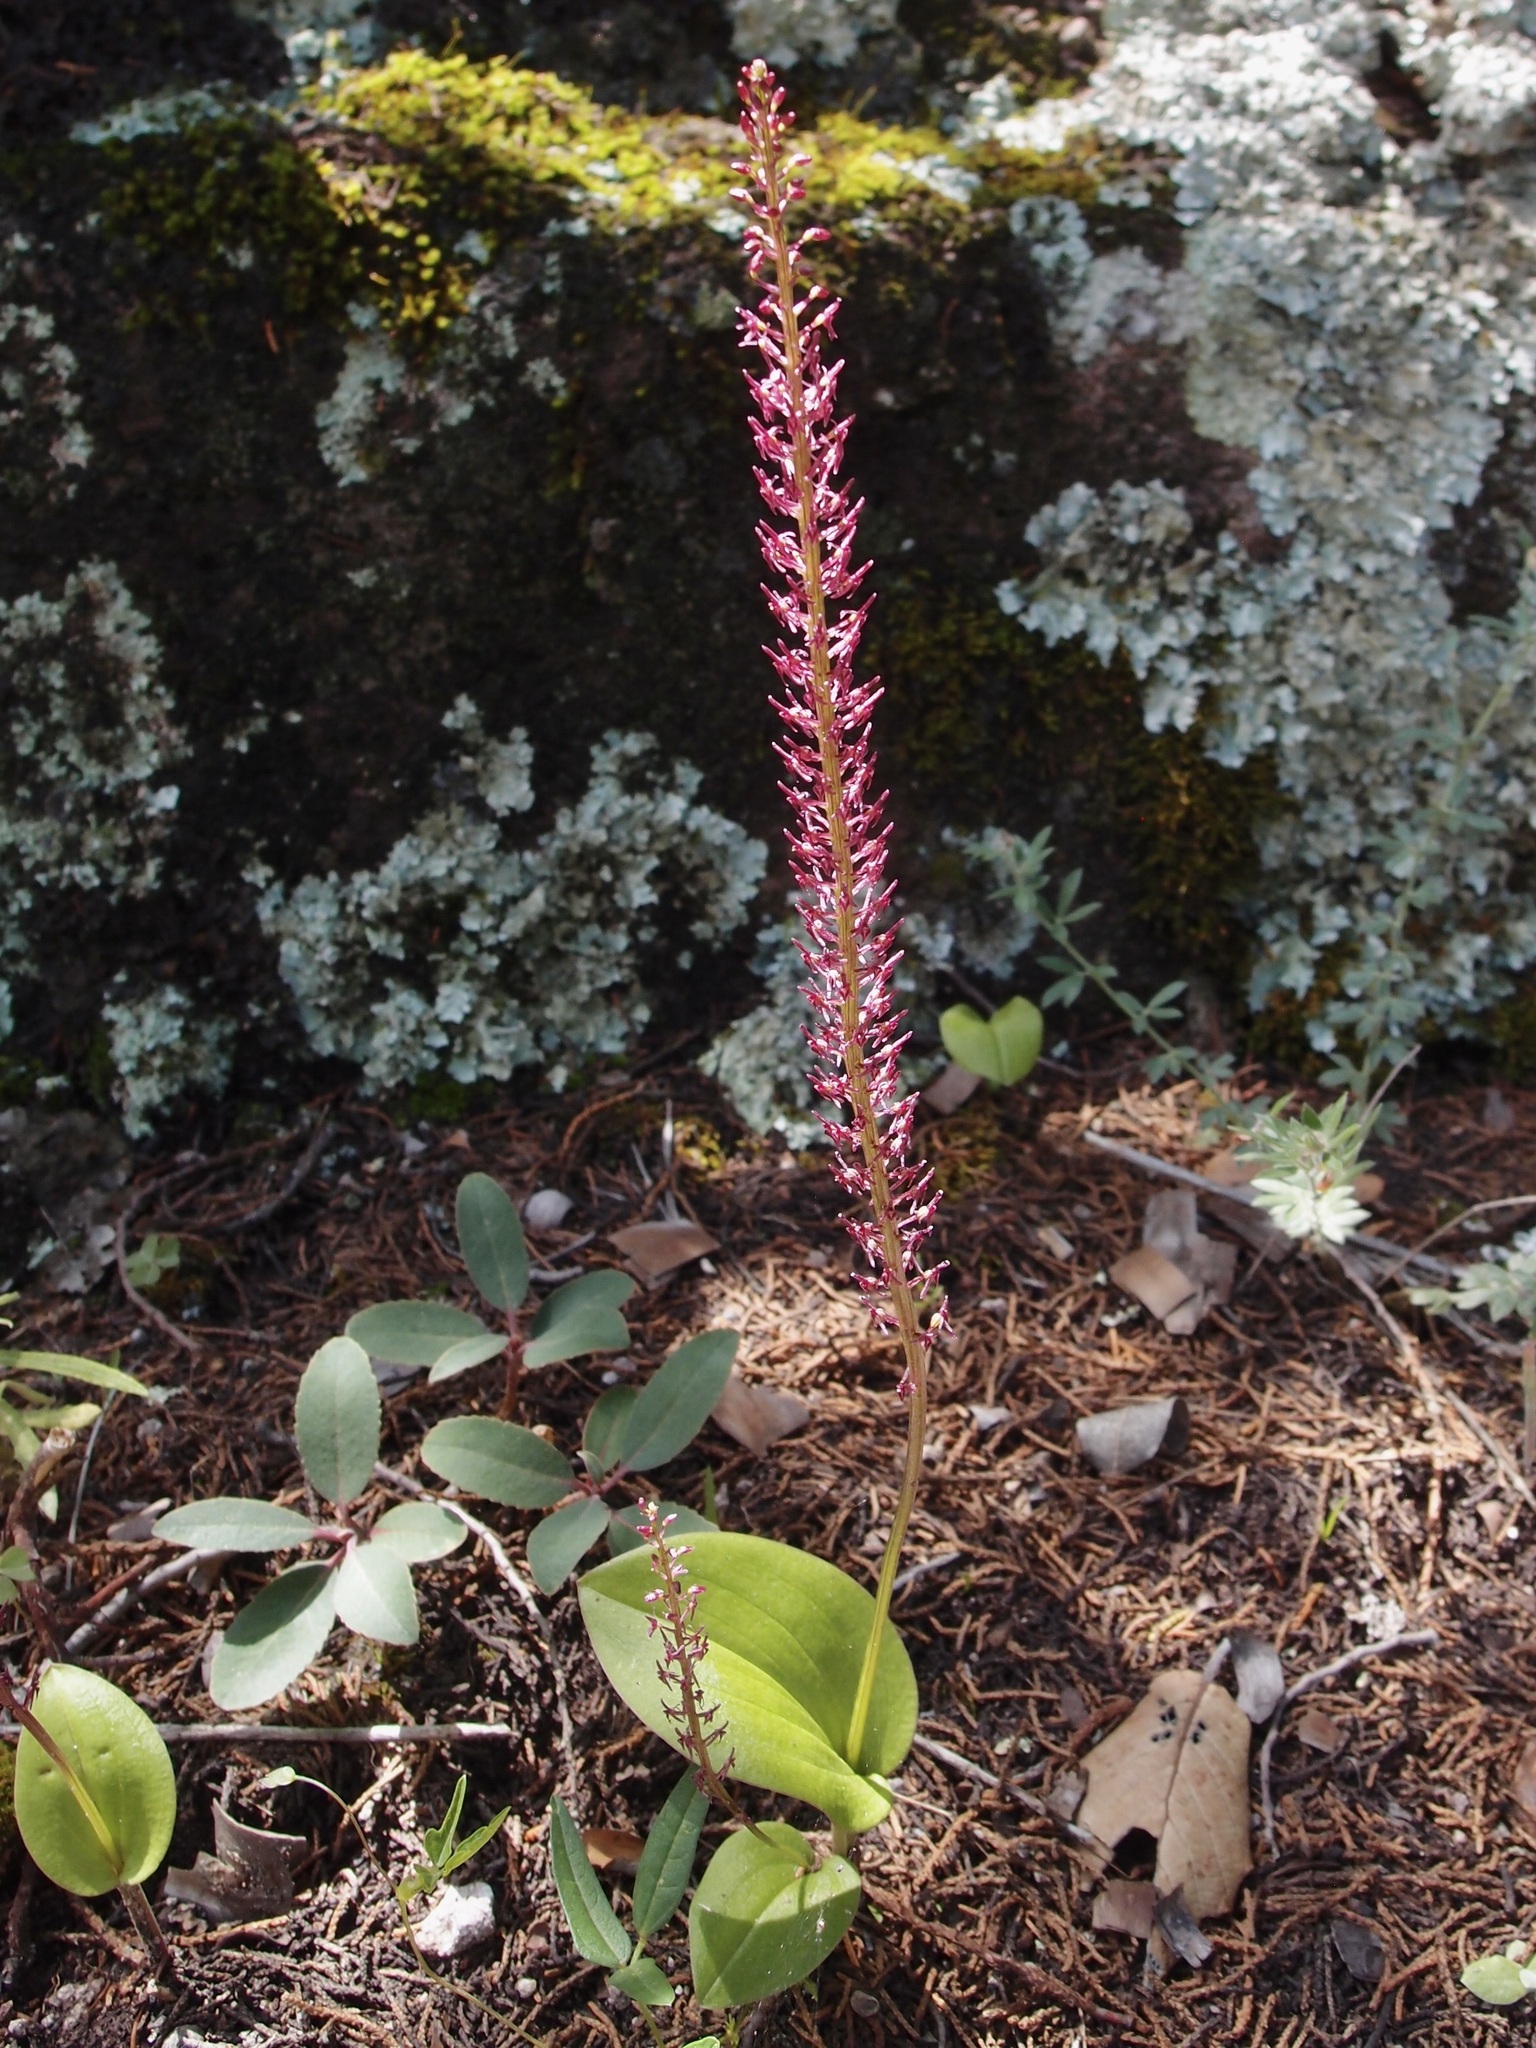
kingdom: Plantae
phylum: Tracheophyta
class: Liliopsida
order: Asparagales
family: Orchidaceae
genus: Tamayorkis
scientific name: Tamayorkis porphyrea
